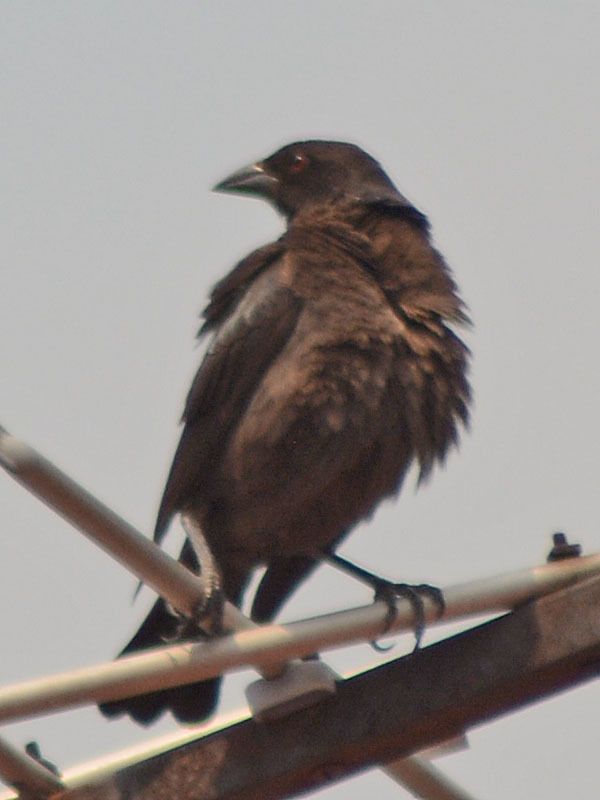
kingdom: Animalia
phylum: Chordata
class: Aves
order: Passeriformes
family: Icteridae
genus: Molothrus
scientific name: Molothrus aeneus
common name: Bronzed cowbird
